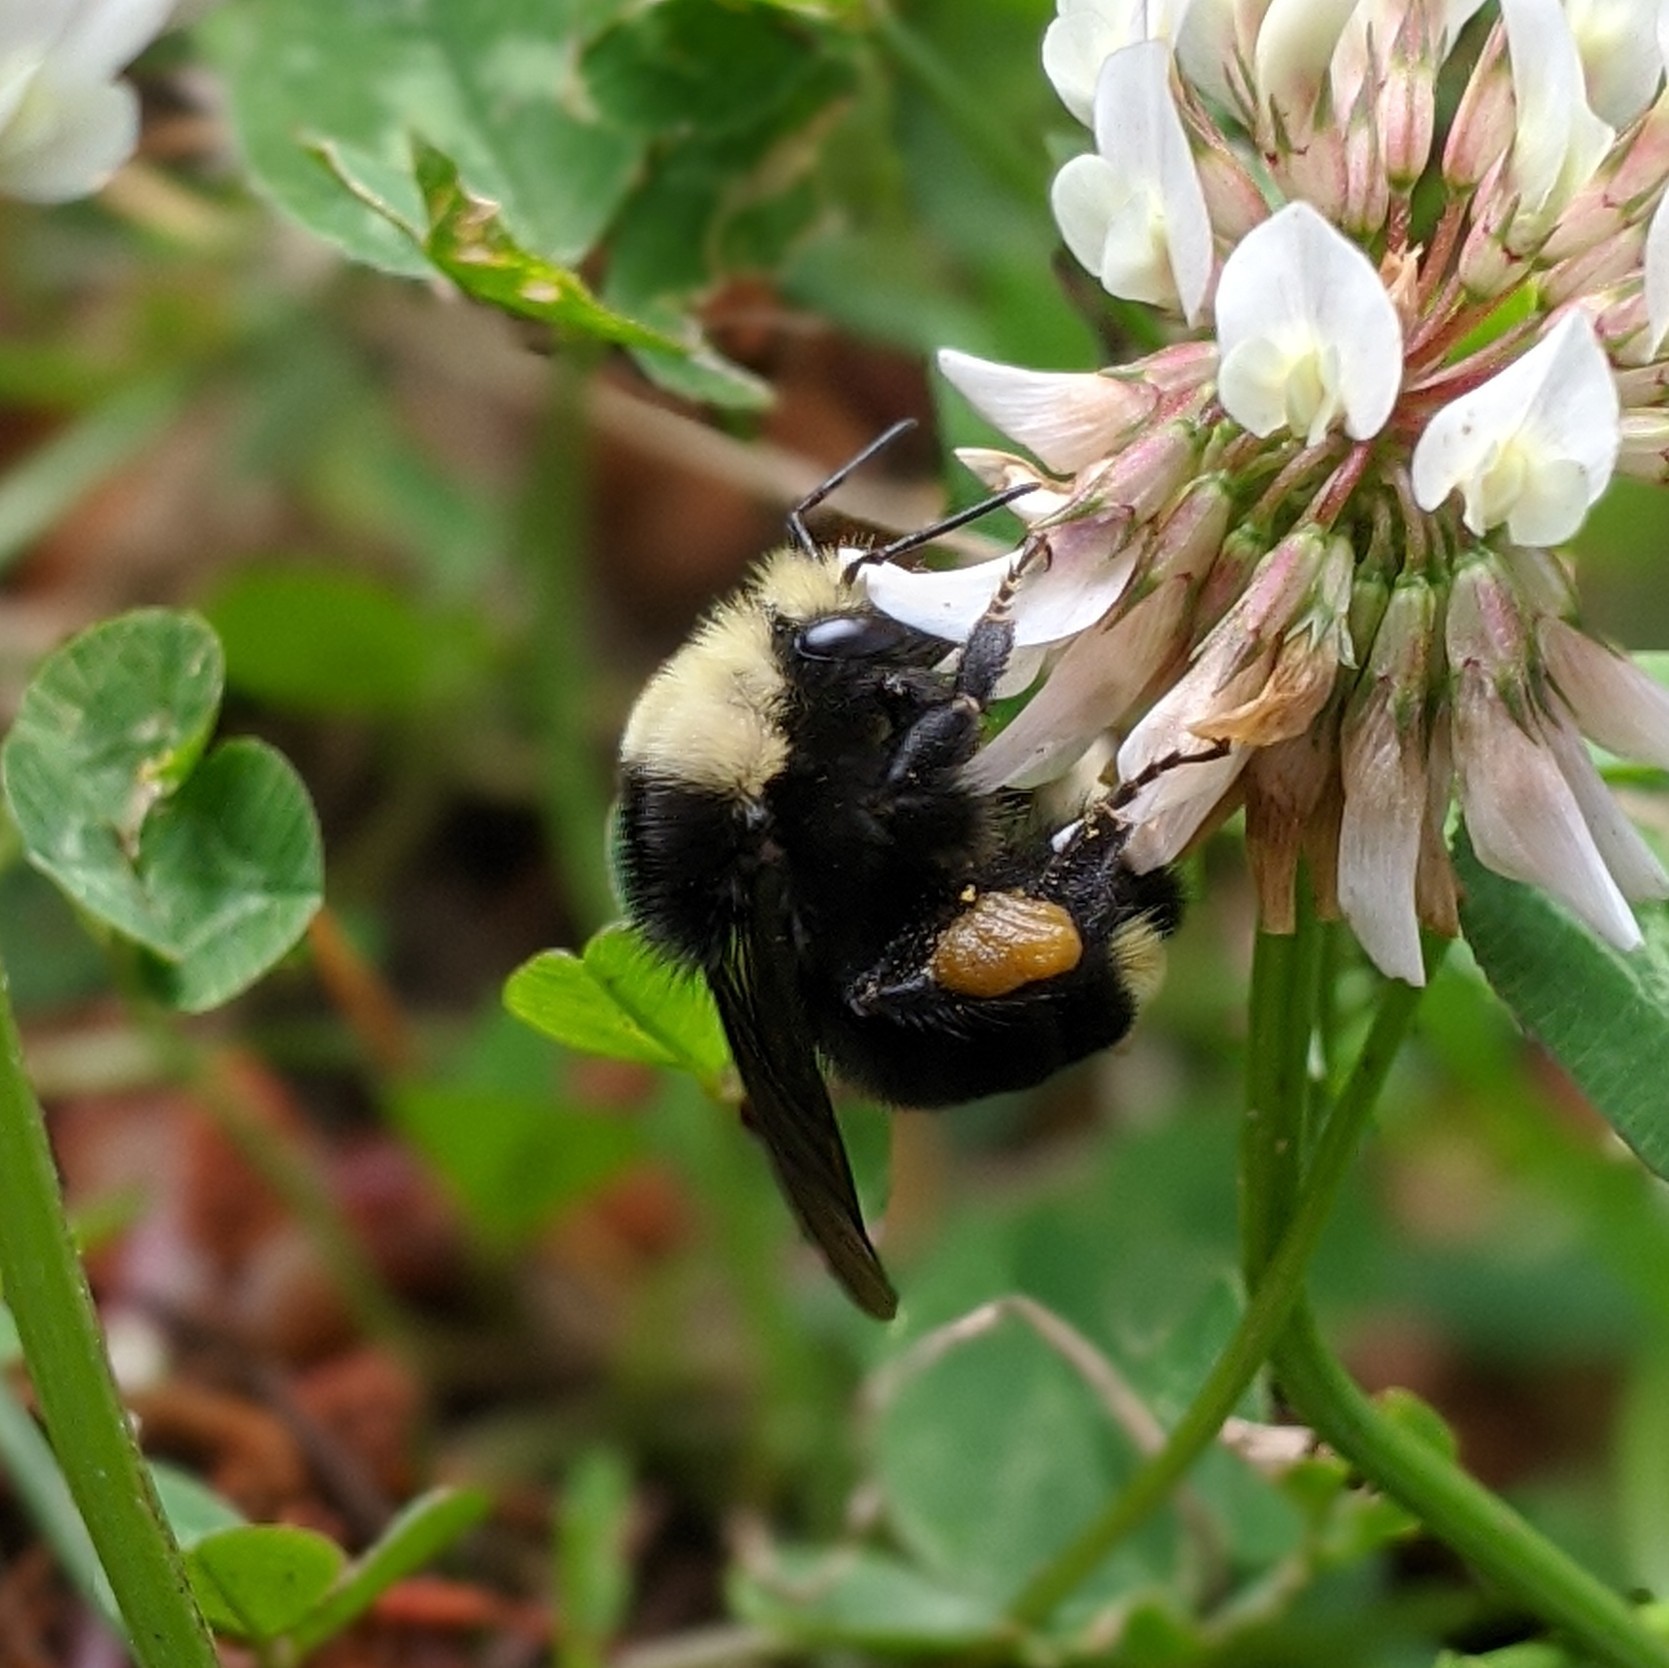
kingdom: Animalia
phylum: Arthropoda
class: Insecta
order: Hymenoptera
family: Apidae
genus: Bombus
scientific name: Bombus vosnesenskii
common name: Vosnesensky bumble bee
